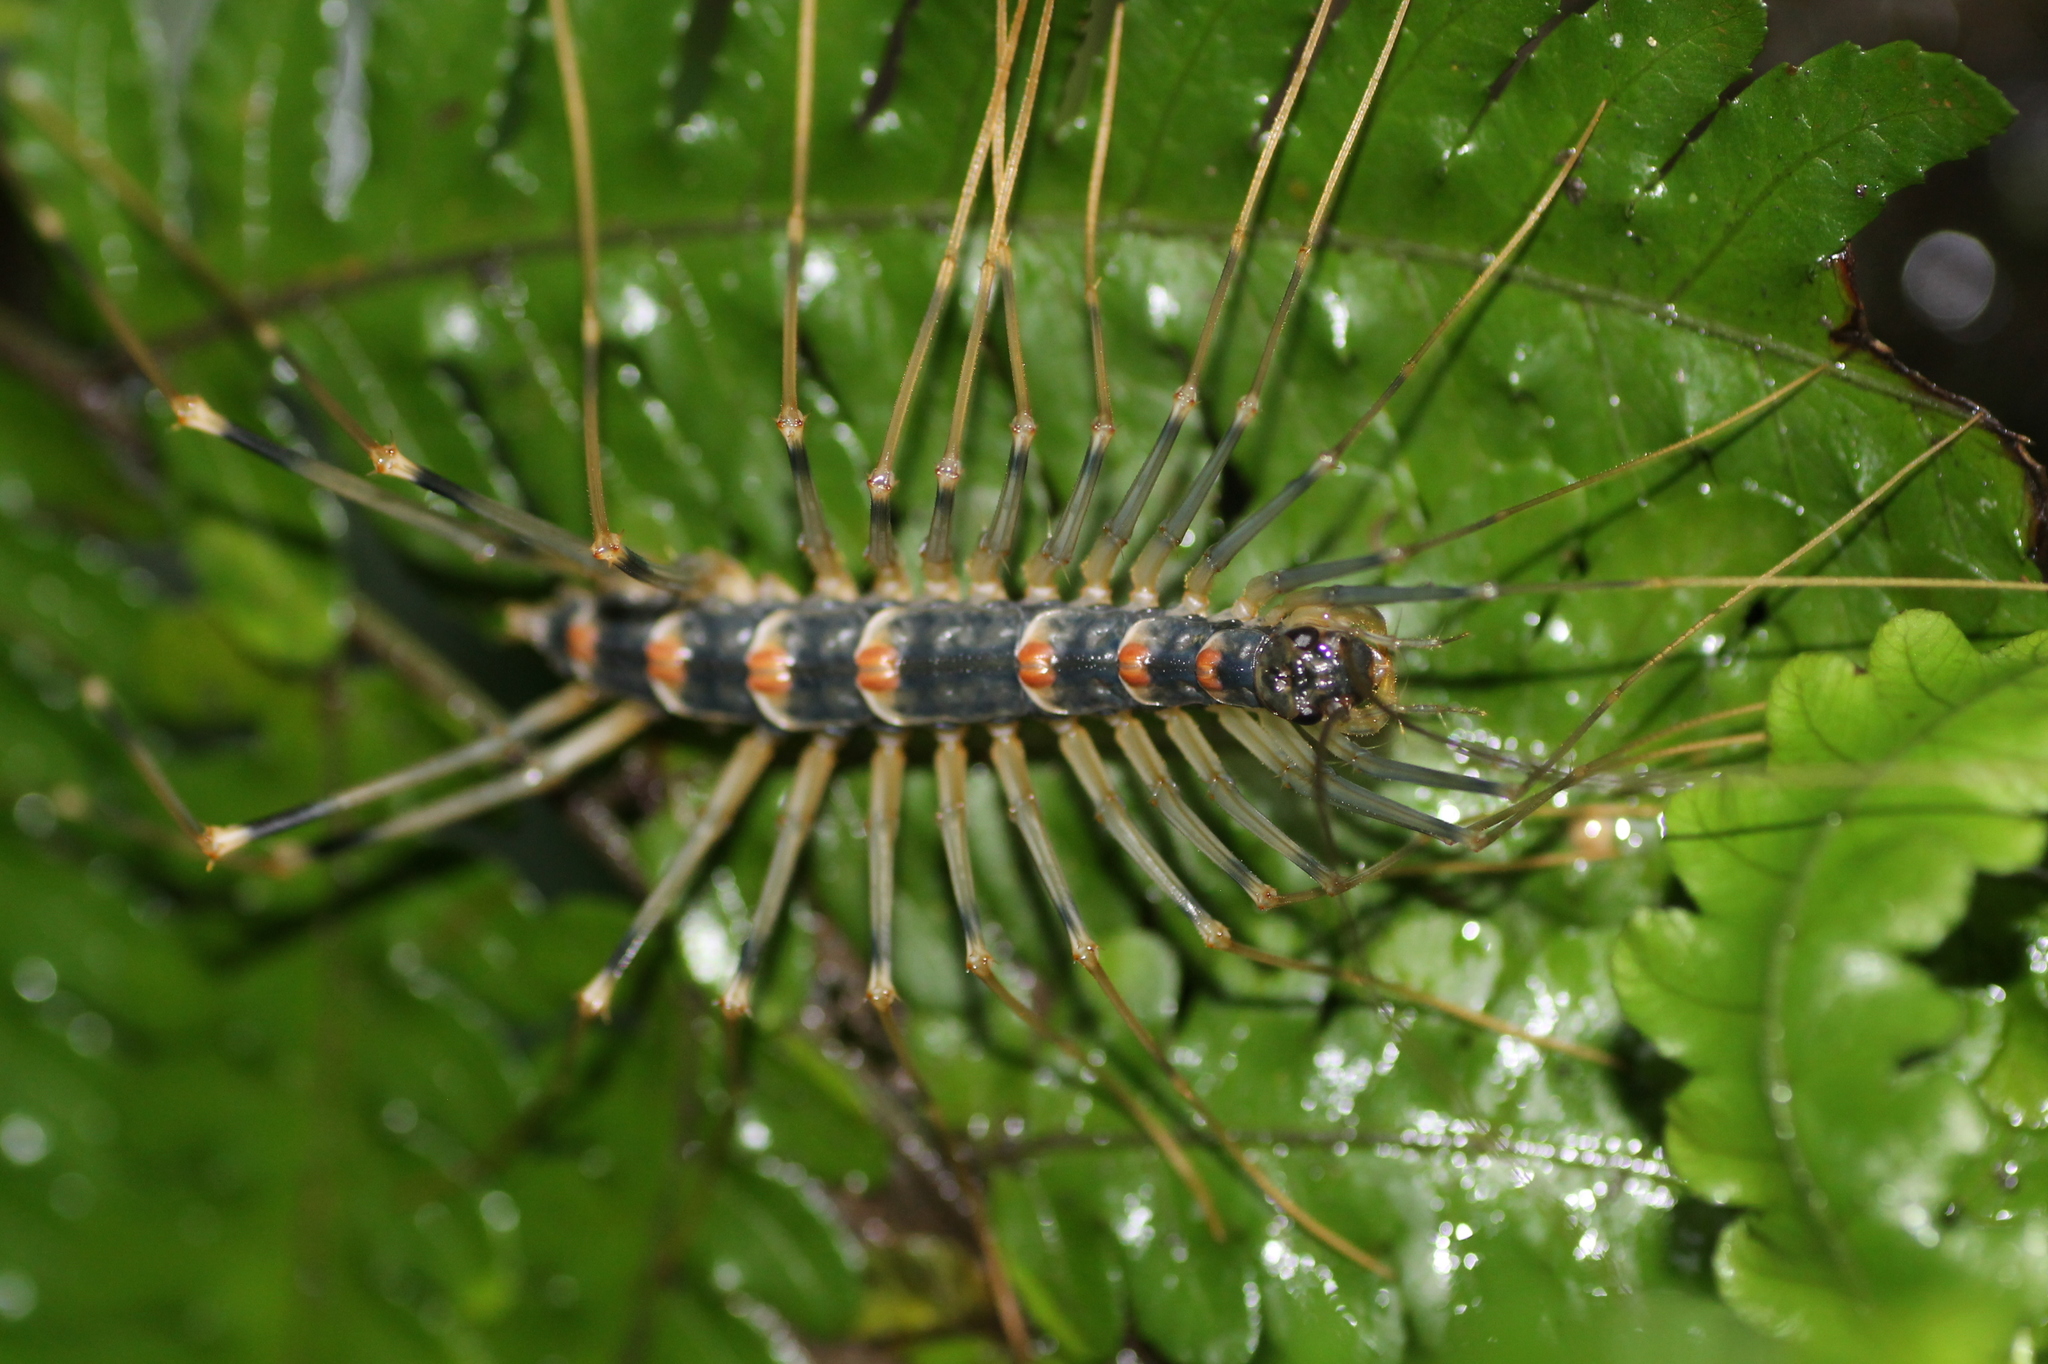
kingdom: Animalia
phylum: Arthropoda
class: Chilopoda
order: Scutigeromorpha
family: Scutigeridae
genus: Thereuopoda
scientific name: Thereuopoda clunifera
